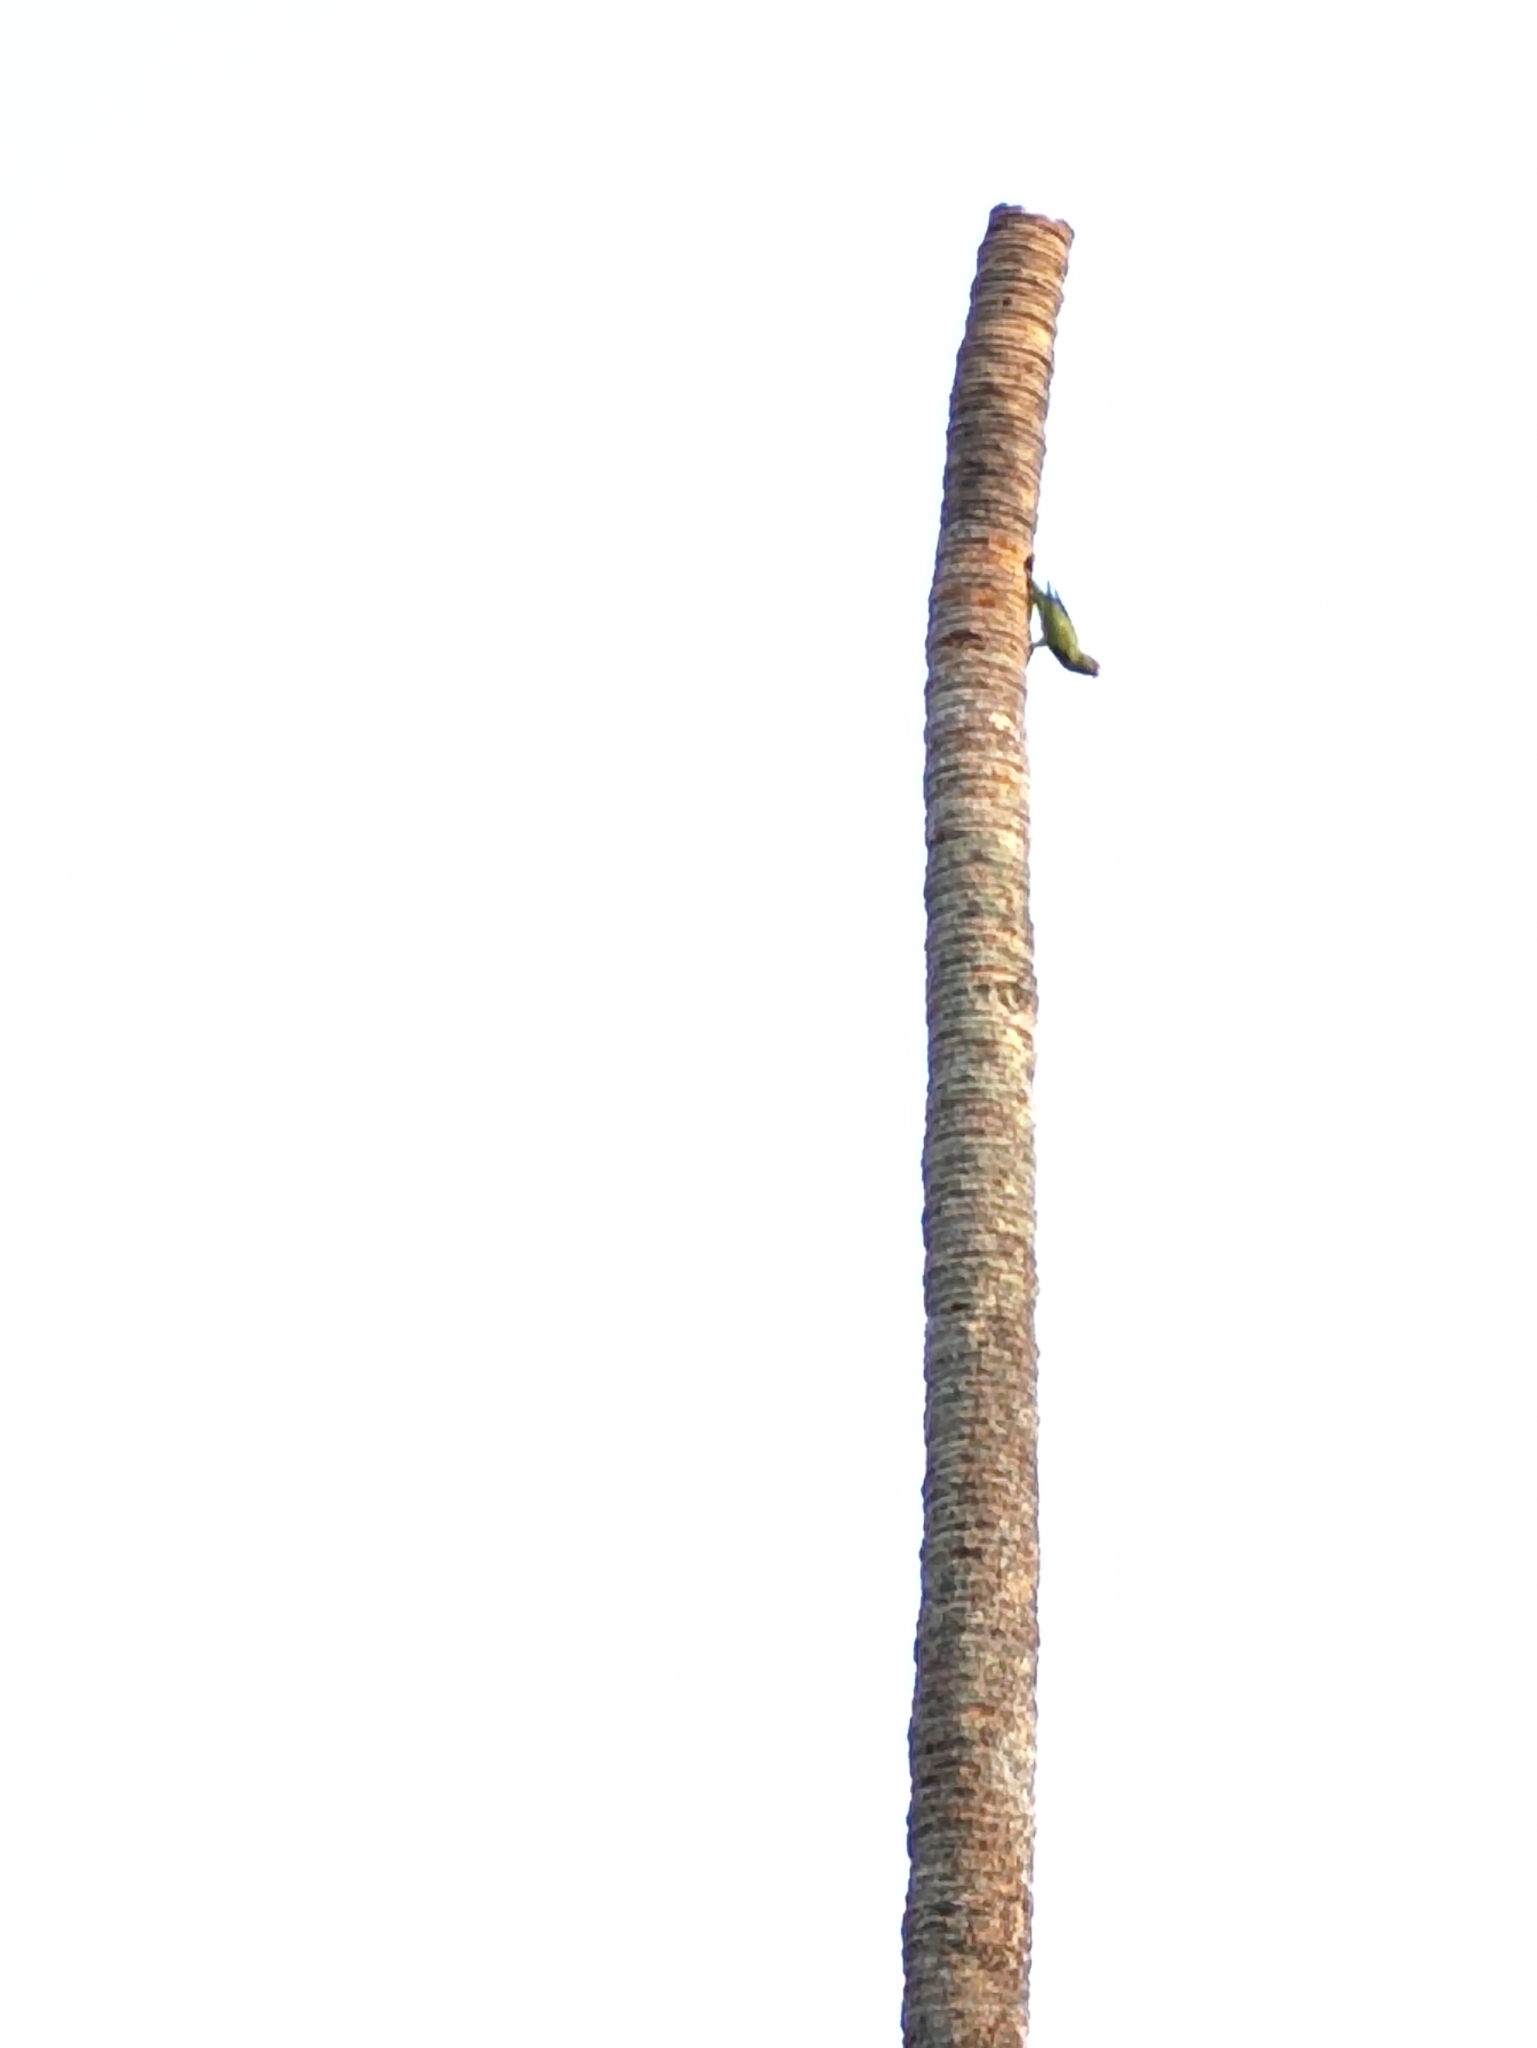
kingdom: Animalia
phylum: Chordata
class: Aves
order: Psittaciformes
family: Psittacidae
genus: Psittacula
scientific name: Psittacula krameri
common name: Rose-ringed parakeet
